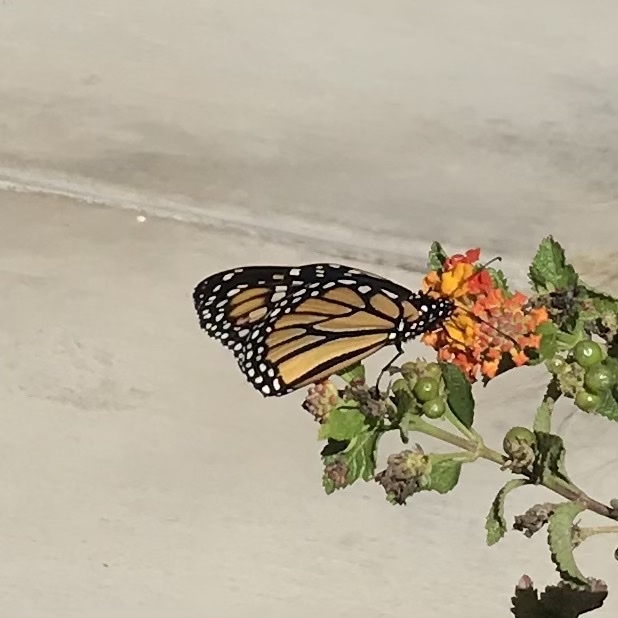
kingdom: Animalia
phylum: Arthropoda
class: Insecta
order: Lepidoptera
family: Nymphalidae
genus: Danaus
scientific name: Danaus plexippus
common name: Monarch
